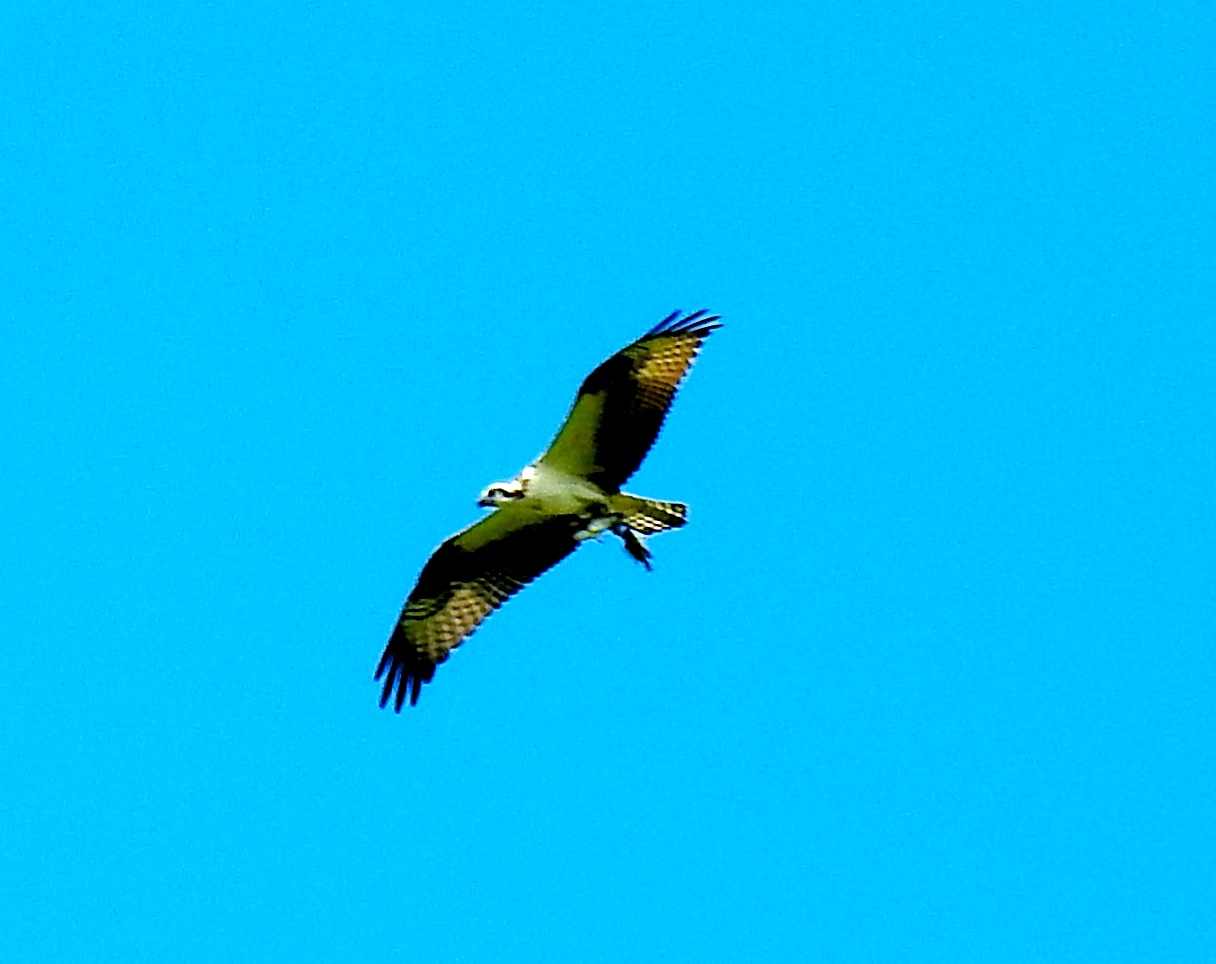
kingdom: Animalia
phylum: Chordata
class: Aves
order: Accipitriformes
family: Pandionidae
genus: Pandion
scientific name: Pandion haliaetus
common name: Osprey
